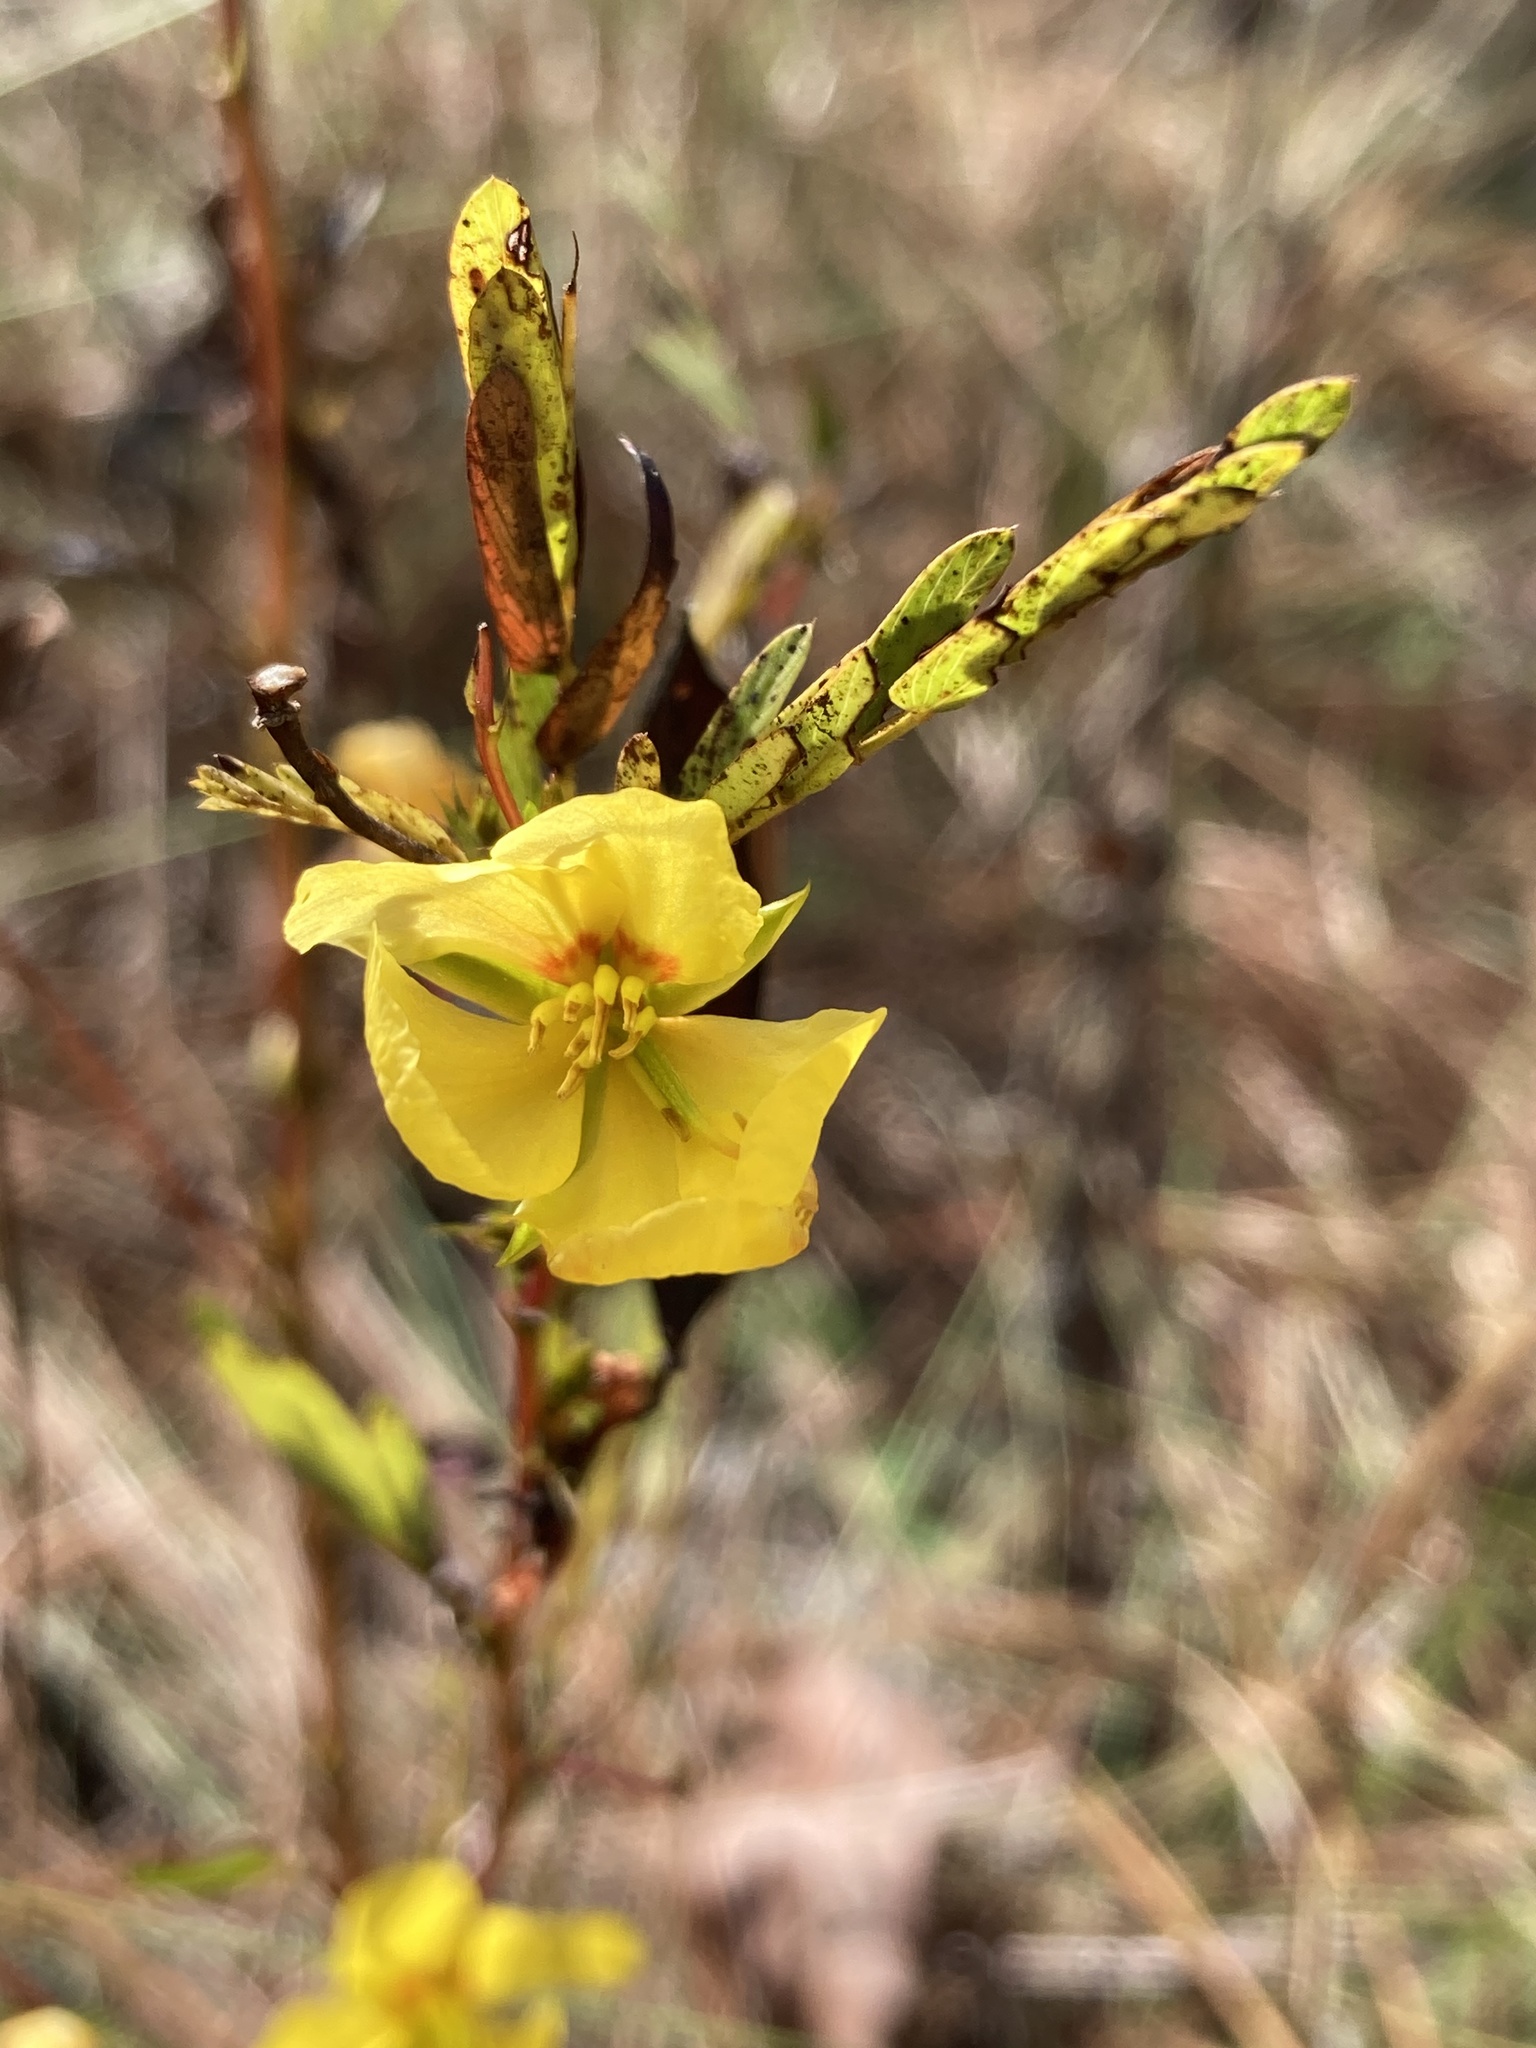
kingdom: Plantae
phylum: Tracheophyta
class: Magnoliopsida
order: Fabales
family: Fabaceae
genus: Chamaecrista
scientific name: Chamaecrista fasciculata
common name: Golden cassia
